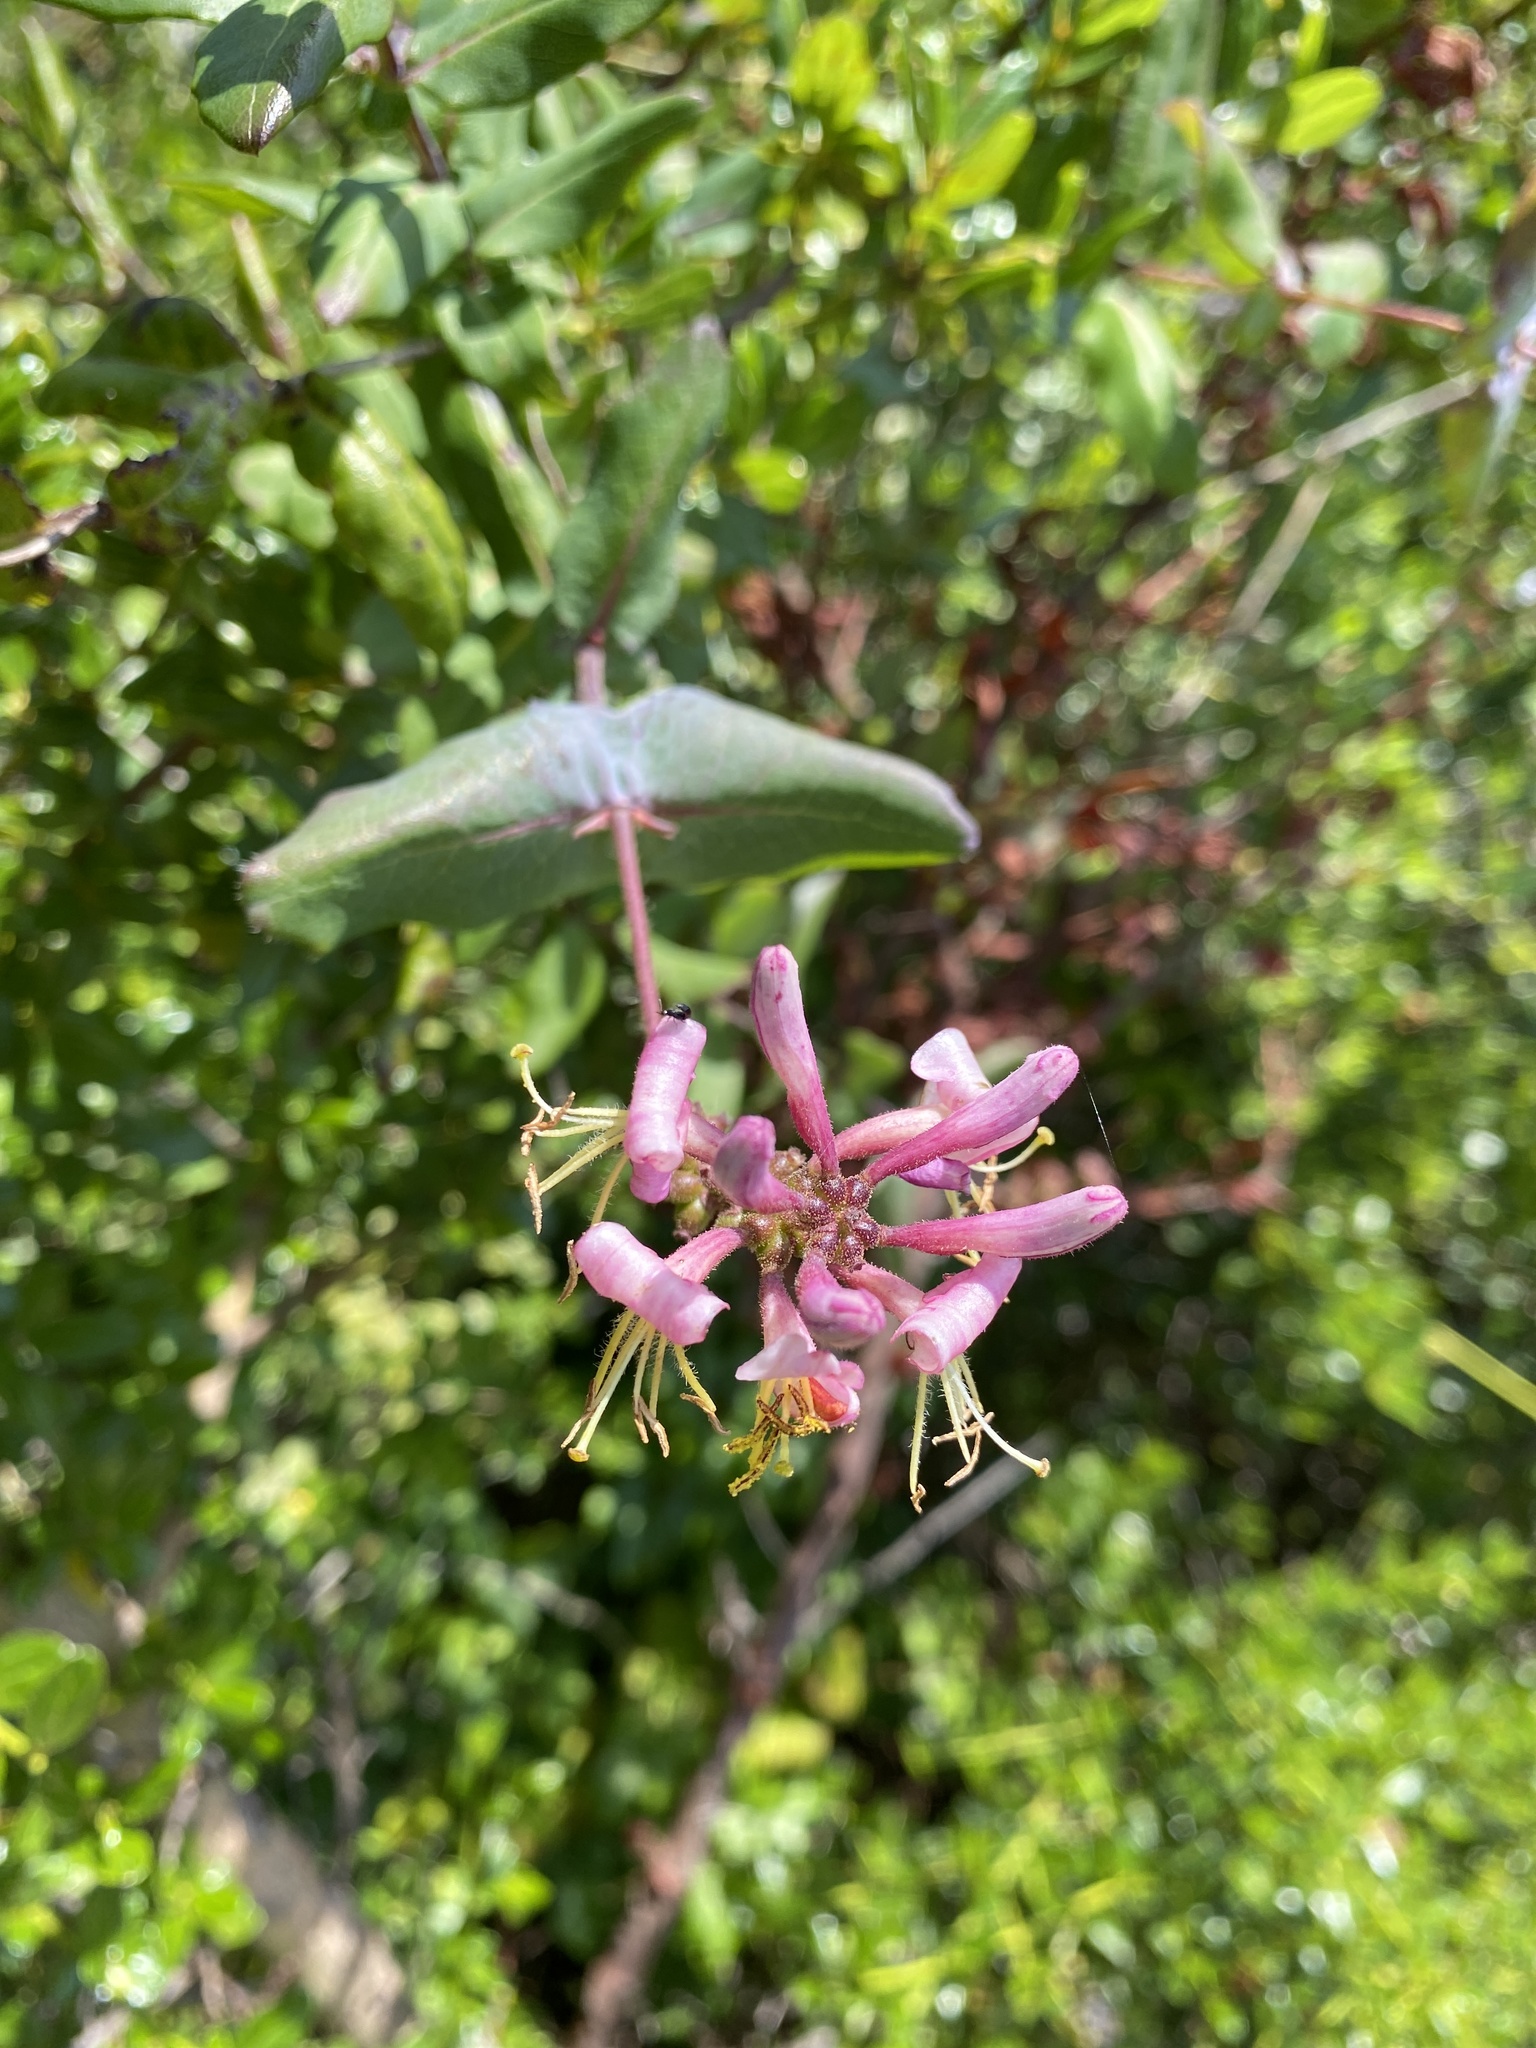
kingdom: Plantae
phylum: Tracheophyta
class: Magnoliopsida
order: Dipsacales
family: Caprifoliaceae
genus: Lonicera
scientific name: Lonicera hispidula
